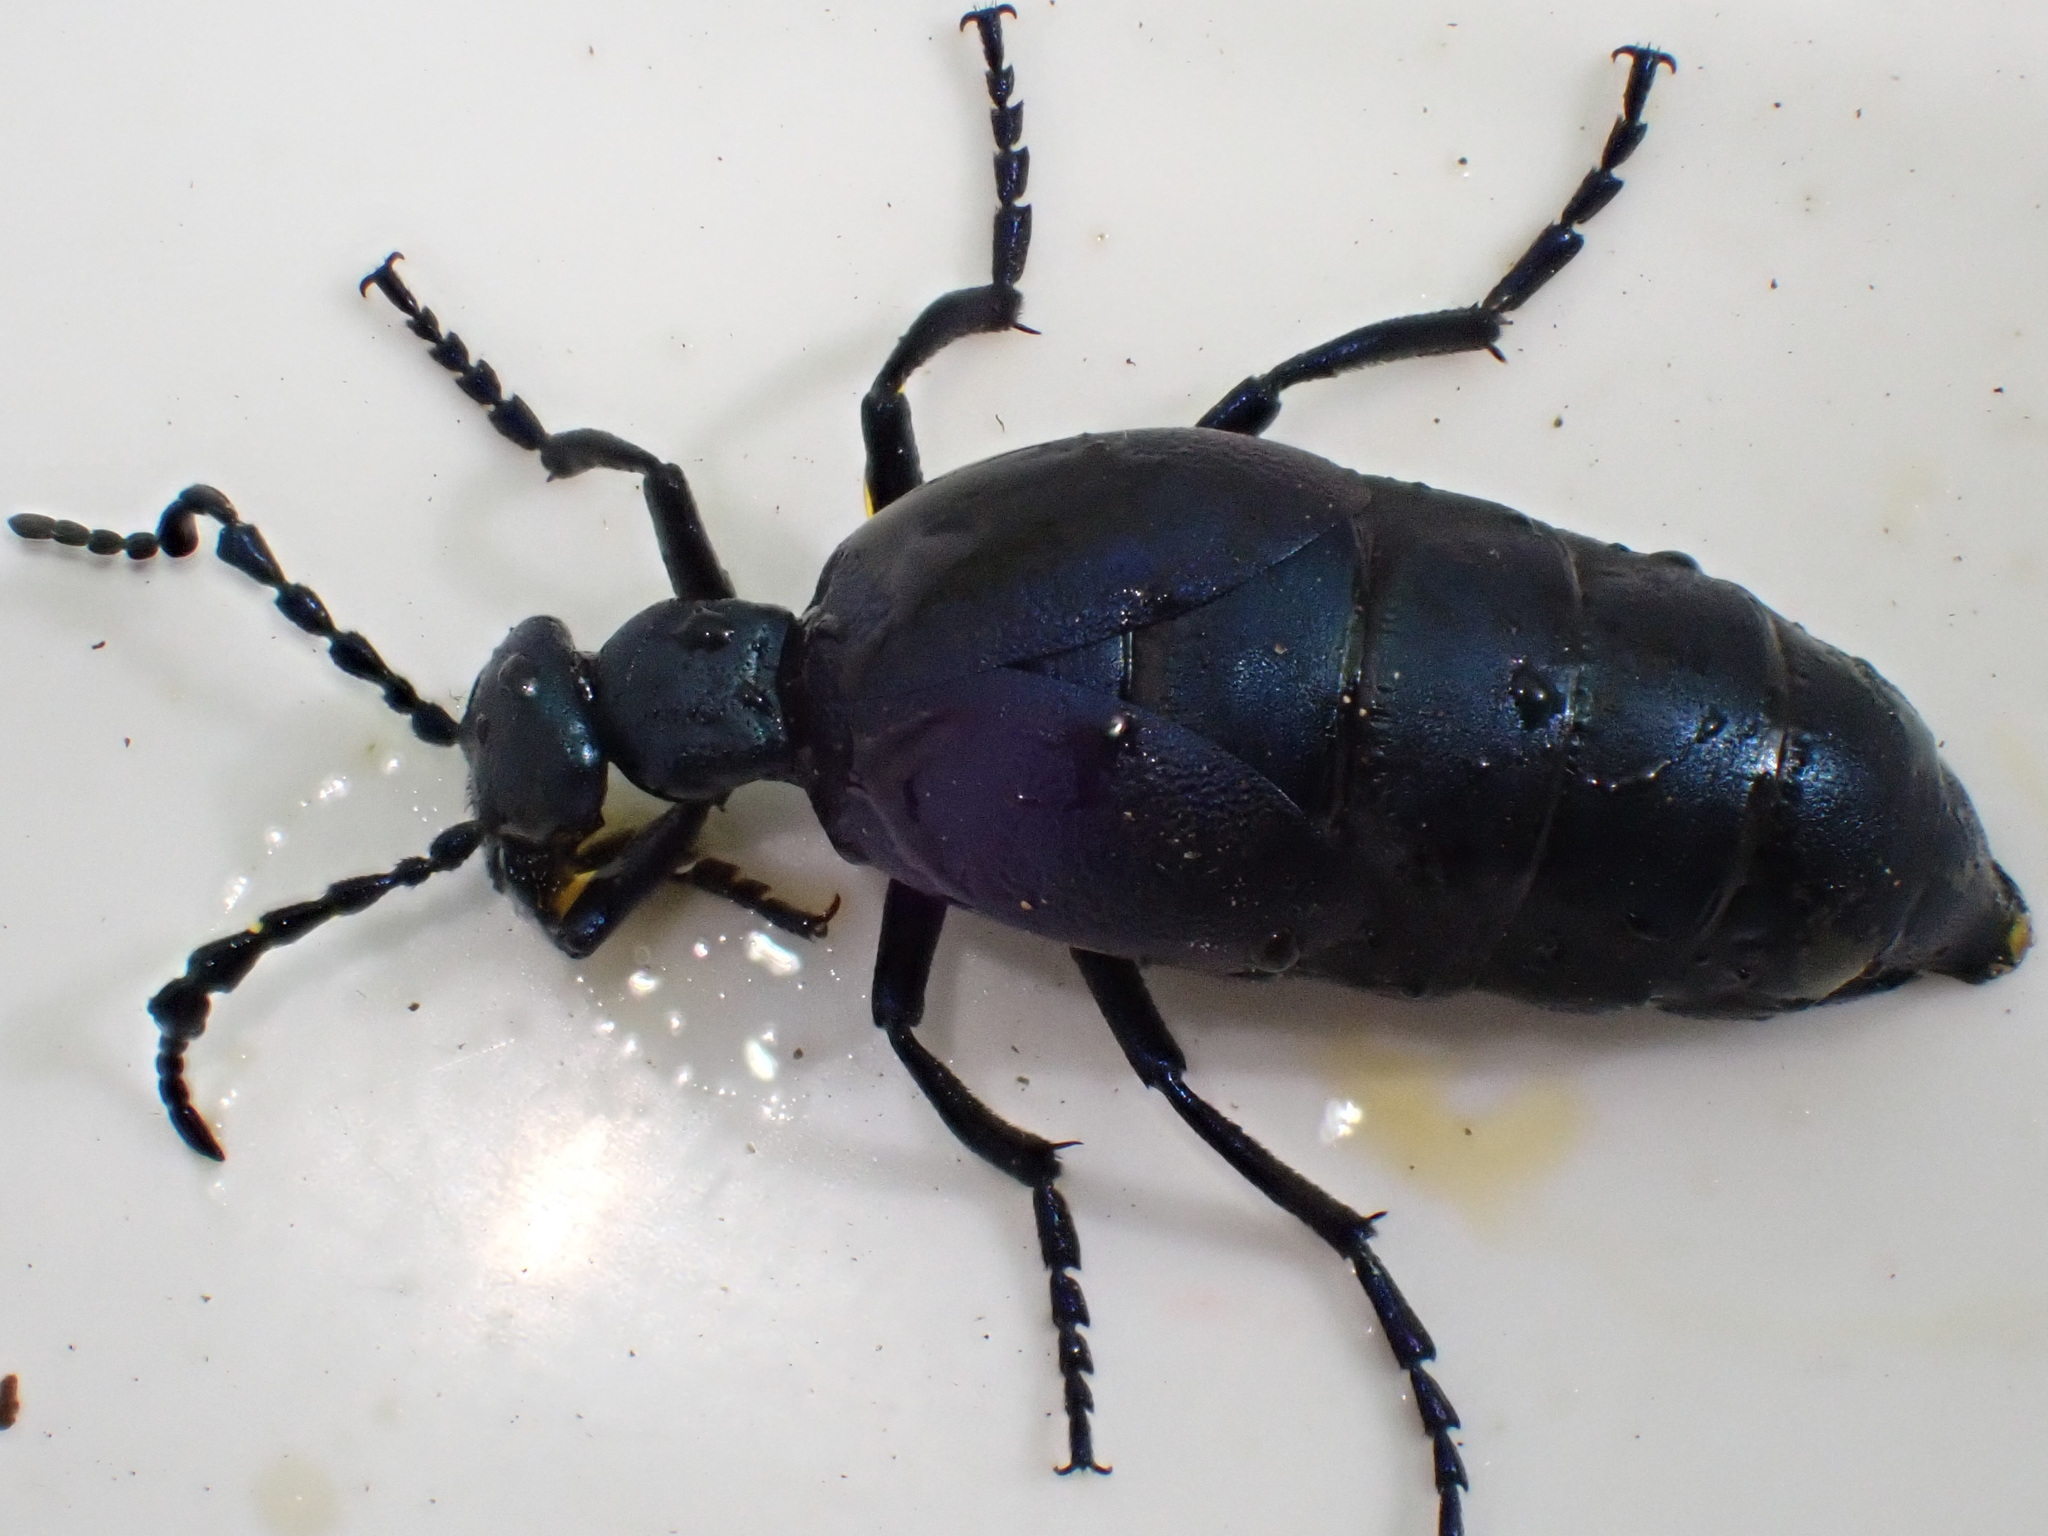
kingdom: Animalia
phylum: Arthropoda
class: Insecta
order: Coleoptera
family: Meloidae
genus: Meloe
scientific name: Meloe violaceus
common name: Violet oil-beetle
